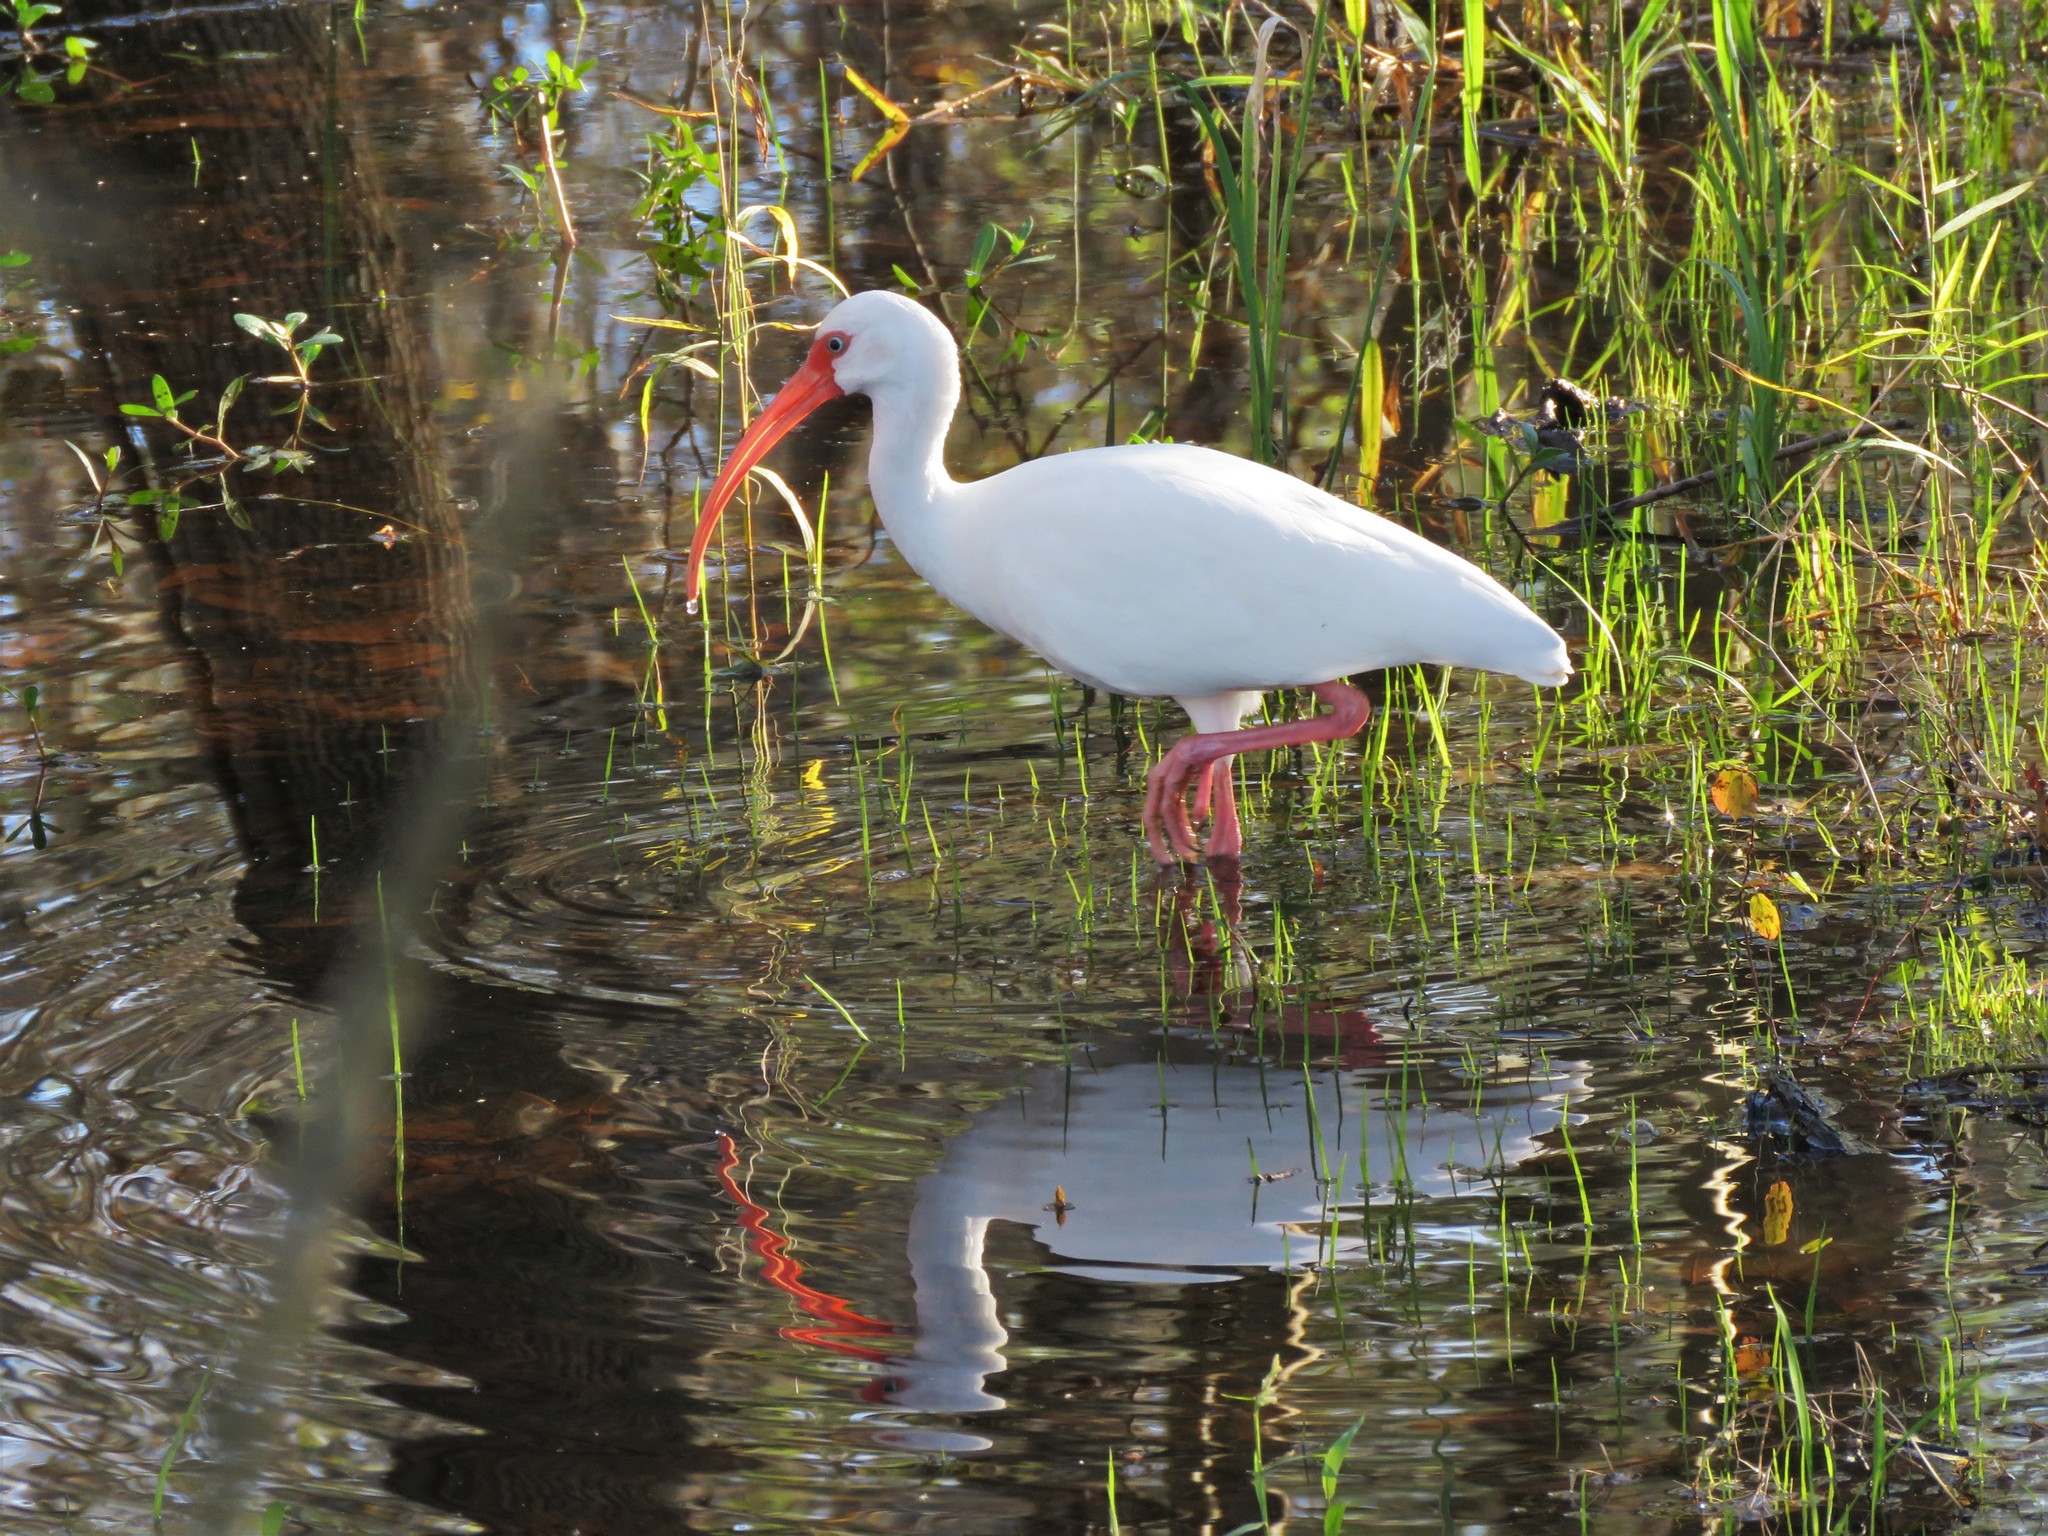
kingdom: Animalia
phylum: Chordata
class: Aves
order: Pelecaniformes
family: Threskiornithidae
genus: Eudocimus
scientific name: Eudocimus albus
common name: White ibis
